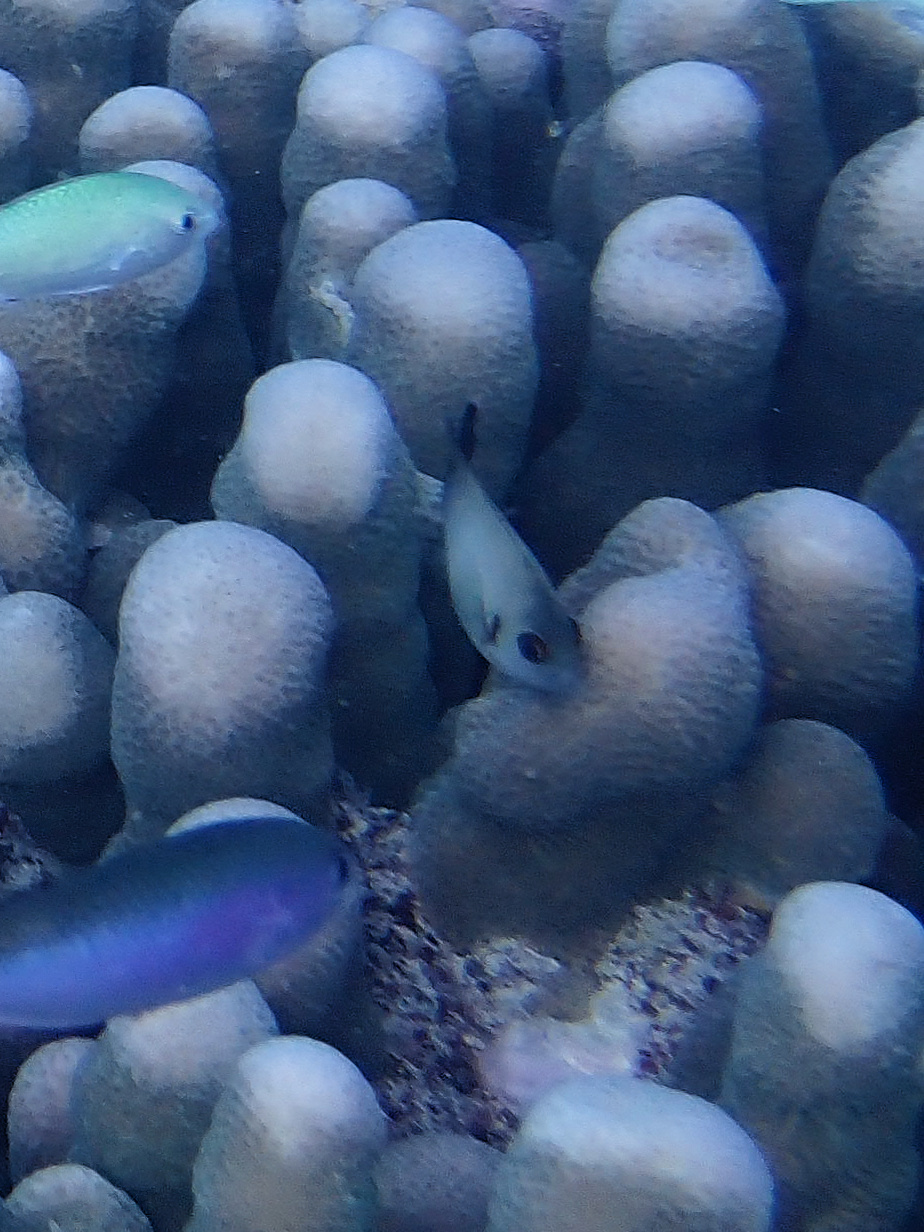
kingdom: Animalia
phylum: Chordata
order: Perciformes
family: Pomacanthidae
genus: Centropyge
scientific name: Centropyge vrolikii
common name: Pearlscale angelfish
